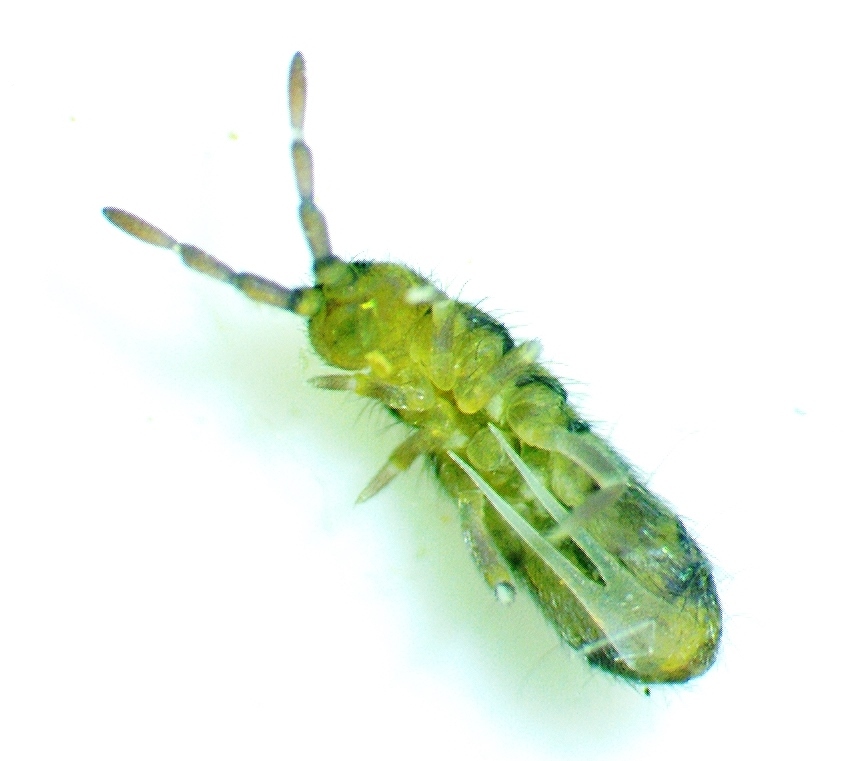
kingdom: Animalia
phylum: Arthropoda
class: Collembola
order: Entomobryomorpha
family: Isotomidae
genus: Isotoma
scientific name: Isotoma delta
